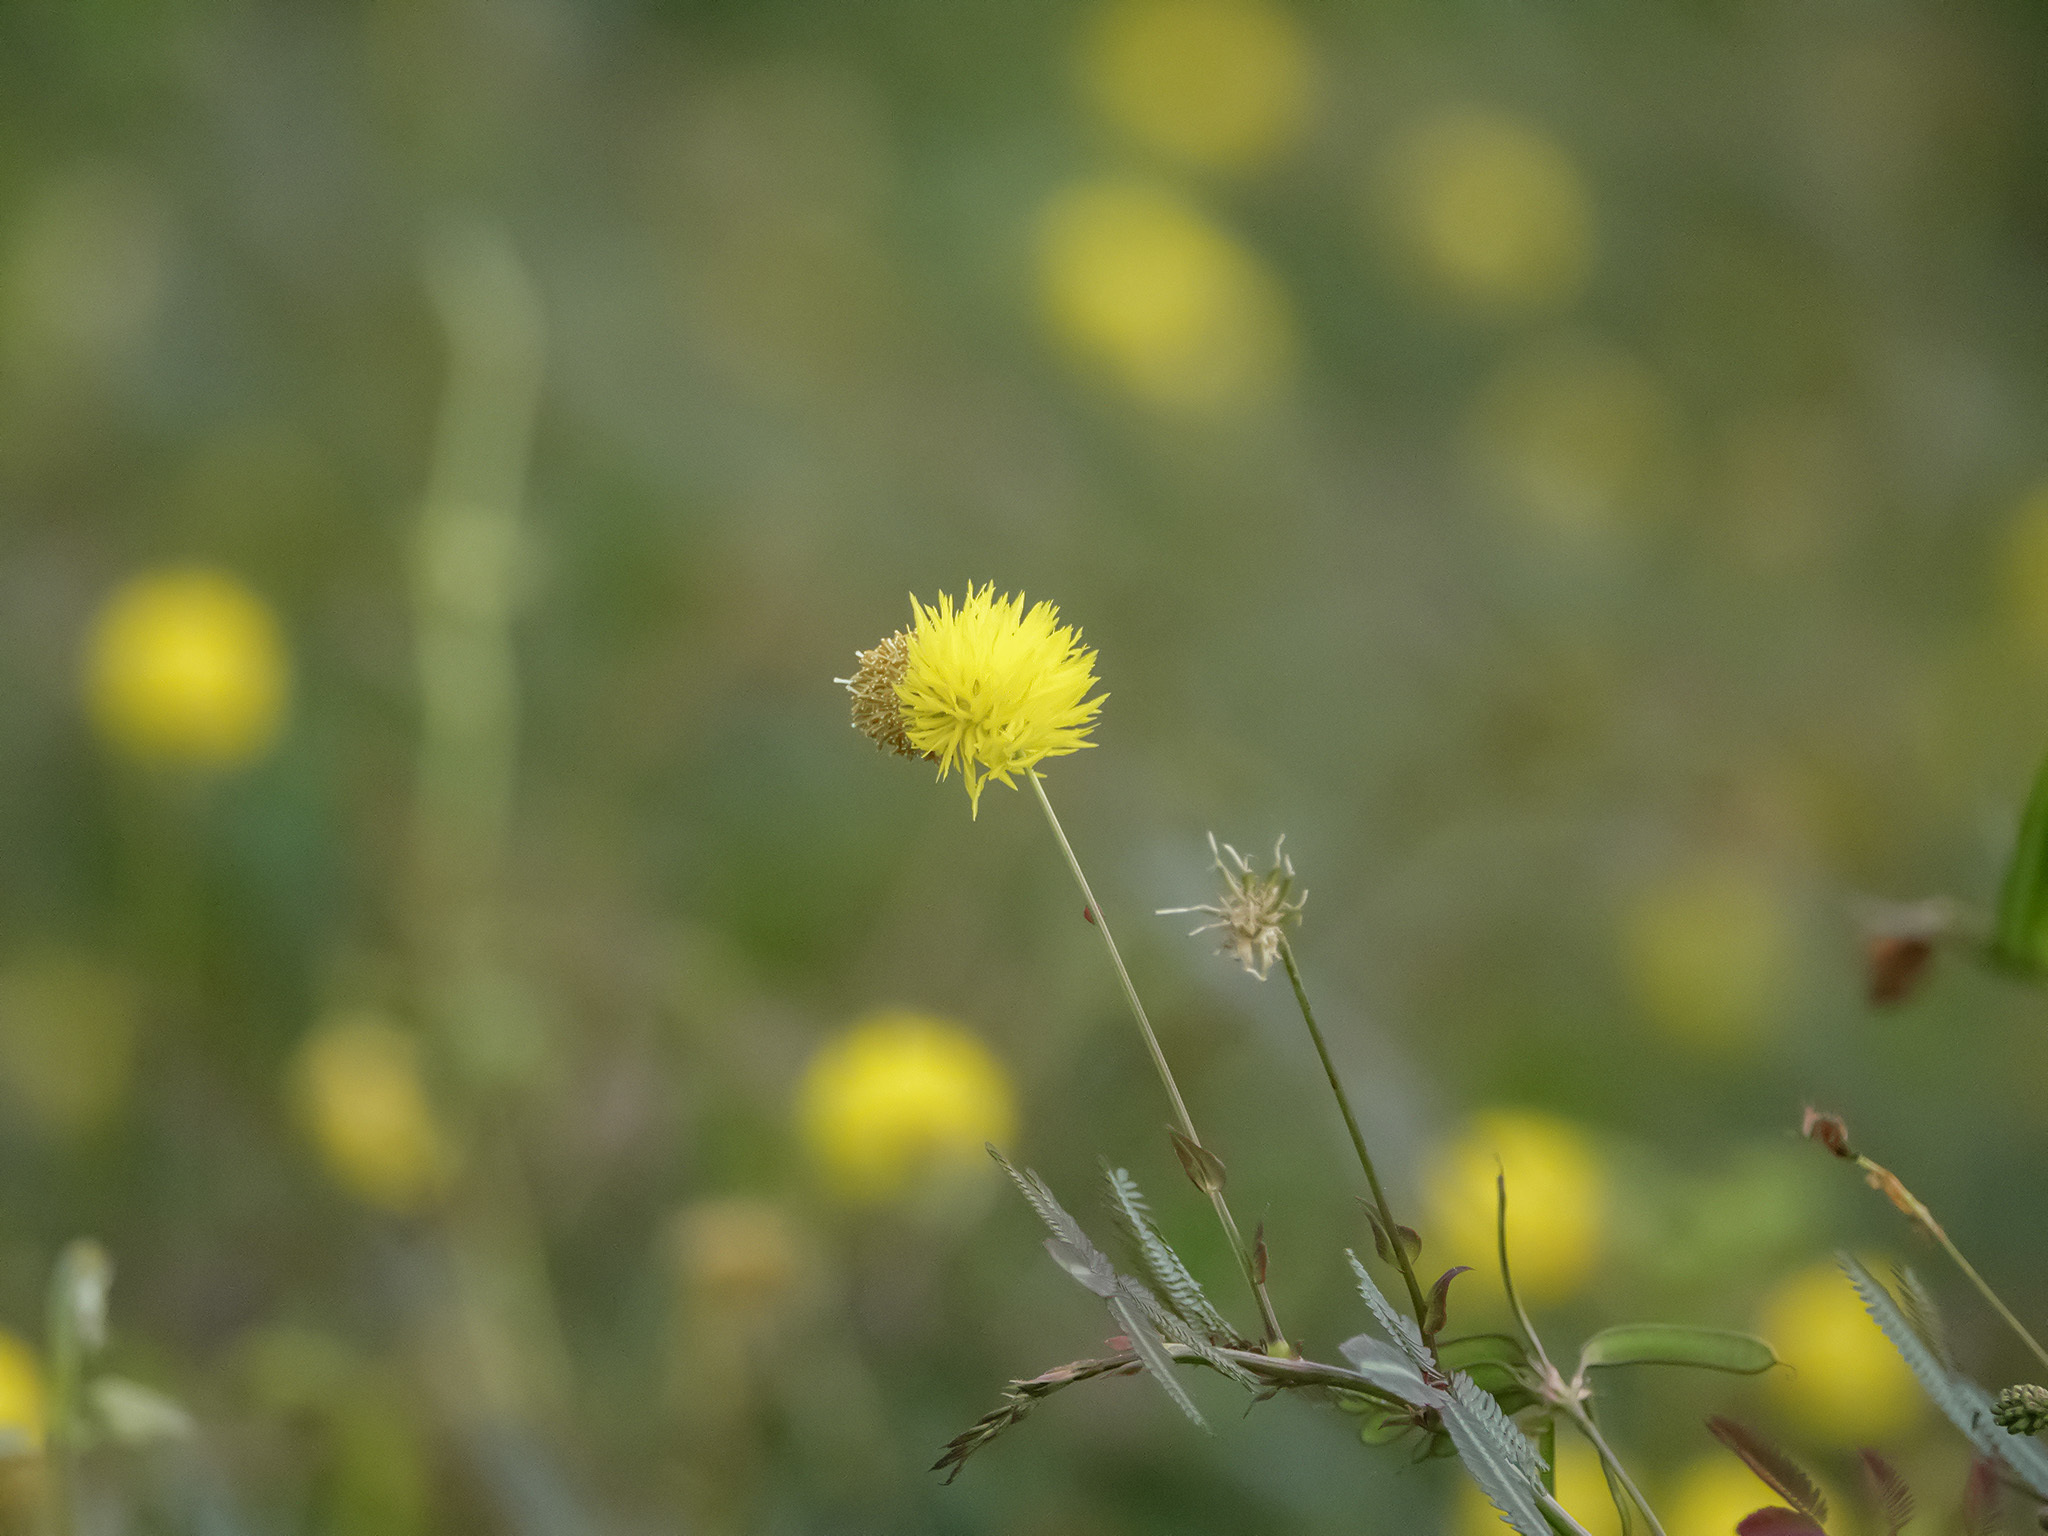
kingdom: Plantae
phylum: Tracheophyta
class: Magnoliopsida
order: Fabales
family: Fabaceae
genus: Neptunia
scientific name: Neptunia plena
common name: Dead and awake
